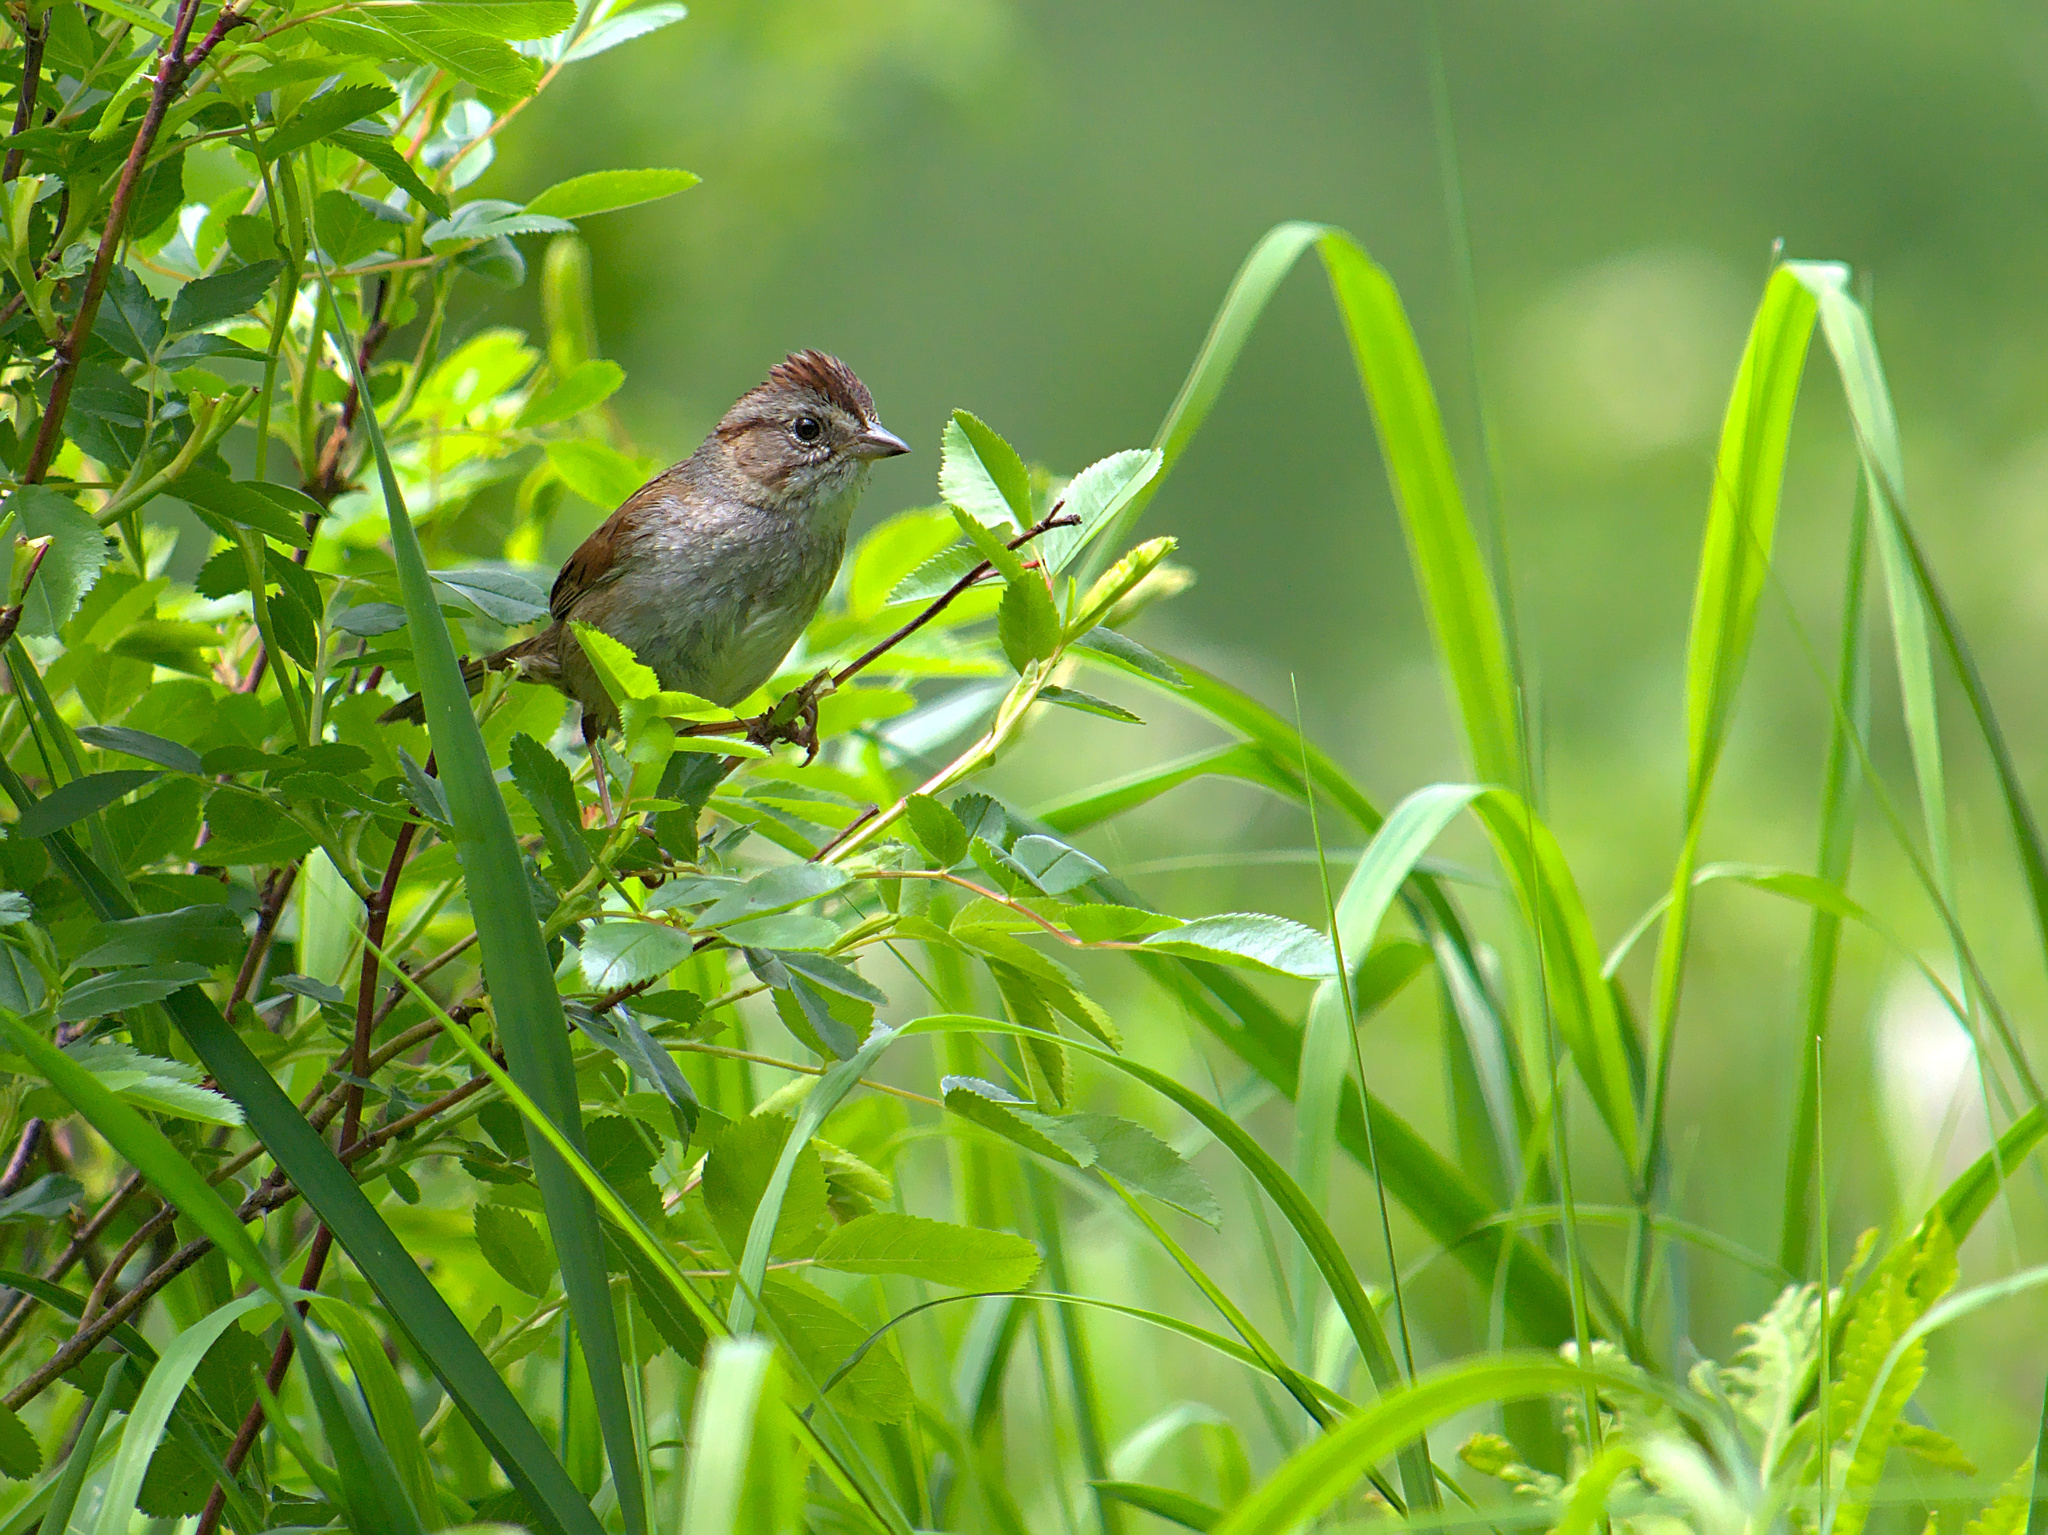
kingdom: Animalia
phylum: Chordata
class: Aves
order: Passeriformes
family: Passerellidae
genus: Melospiza
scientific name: Melospiza georgiana
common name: Swamp sparrow
